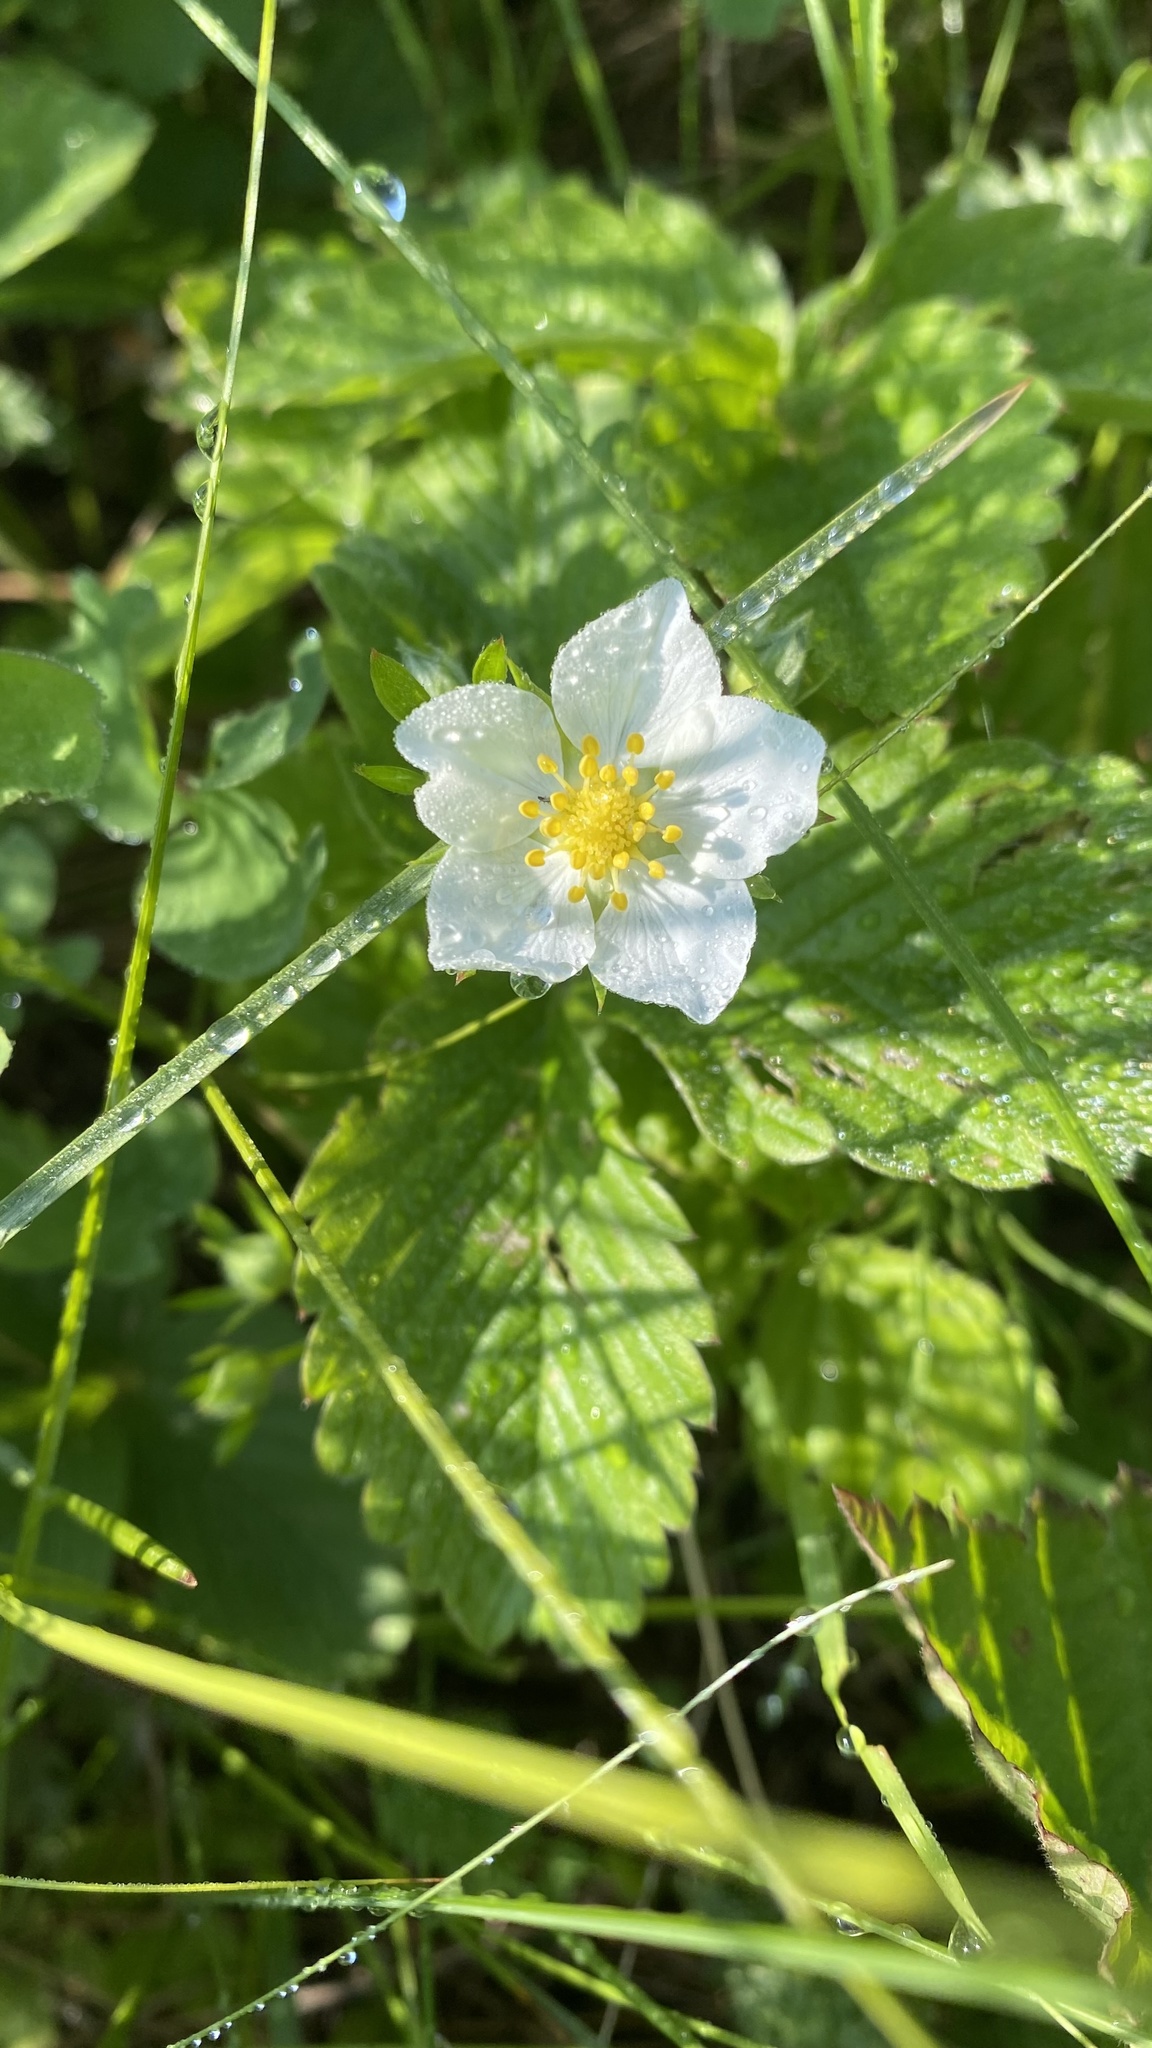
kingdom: Plantae
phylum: Tracheophyta
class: Magnoliopsida
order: Rosales
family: Rosaceae
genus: Fragaria
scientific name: Fragaria viridis
